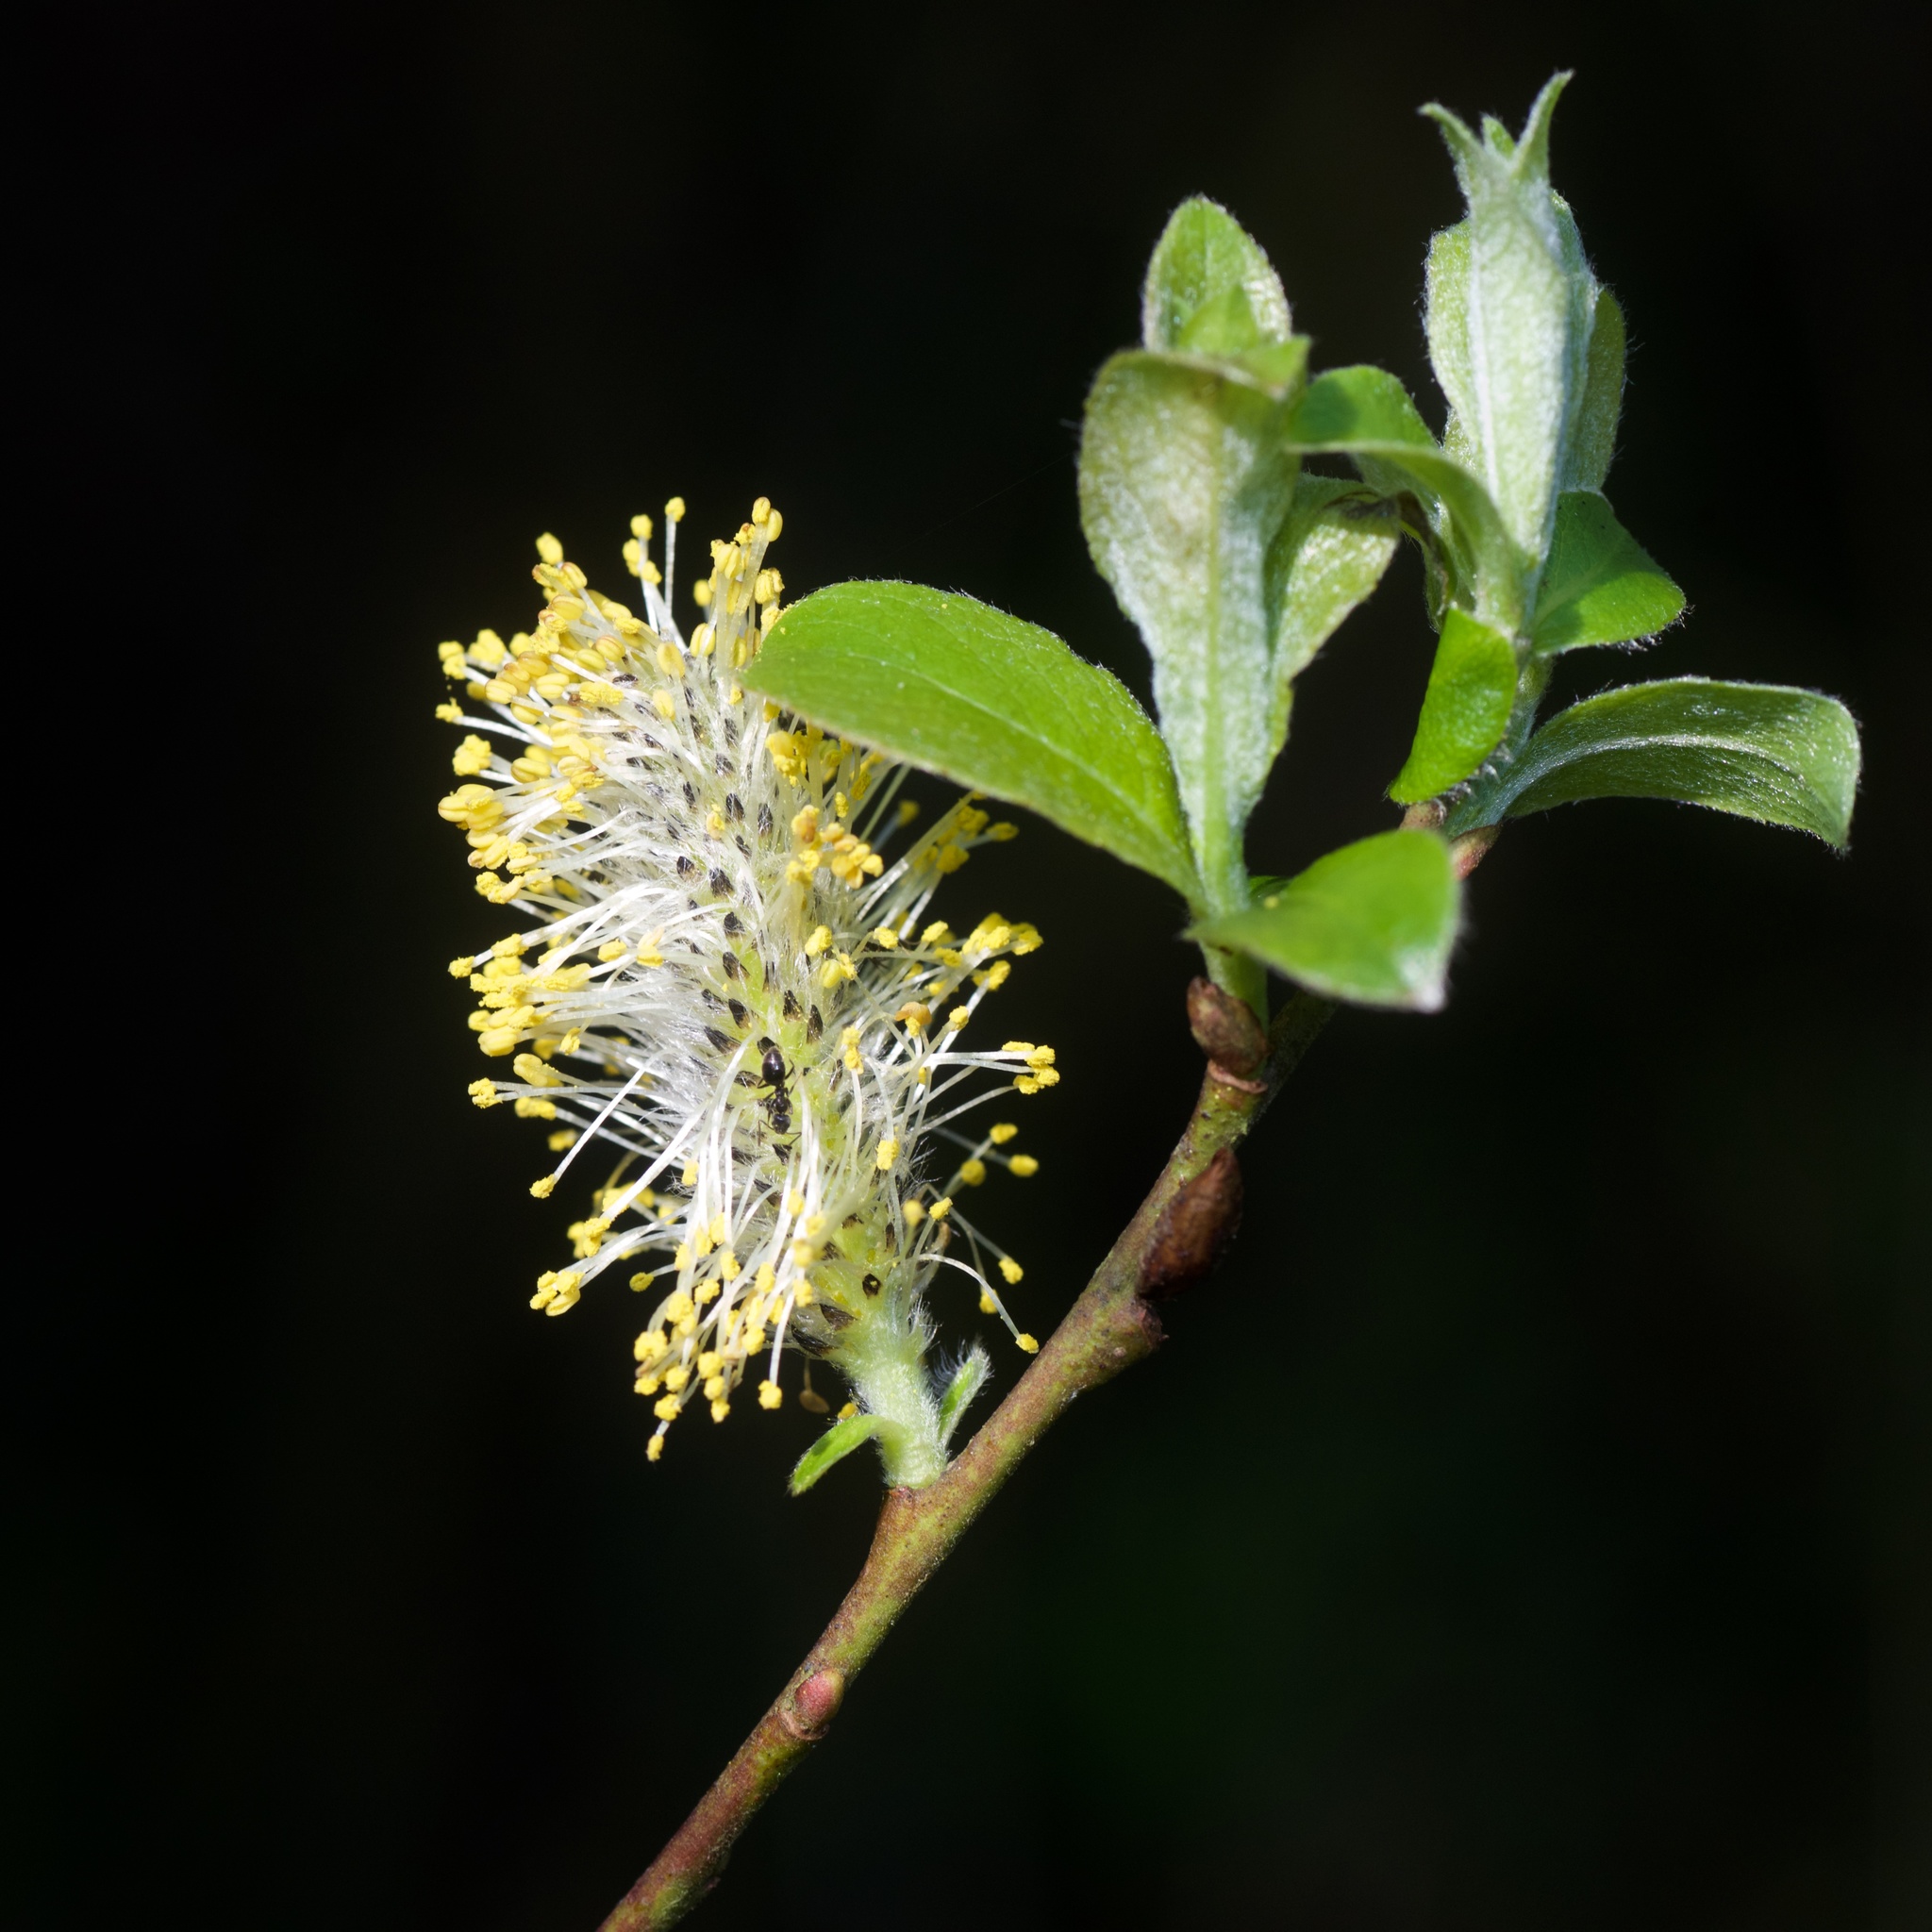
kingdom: Plantae
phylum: Tracheophyta
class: Magnoliopsida
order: Malpighiales
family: Salicaceae
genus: Salix
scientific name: Salix cinerea
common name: Common sallow
